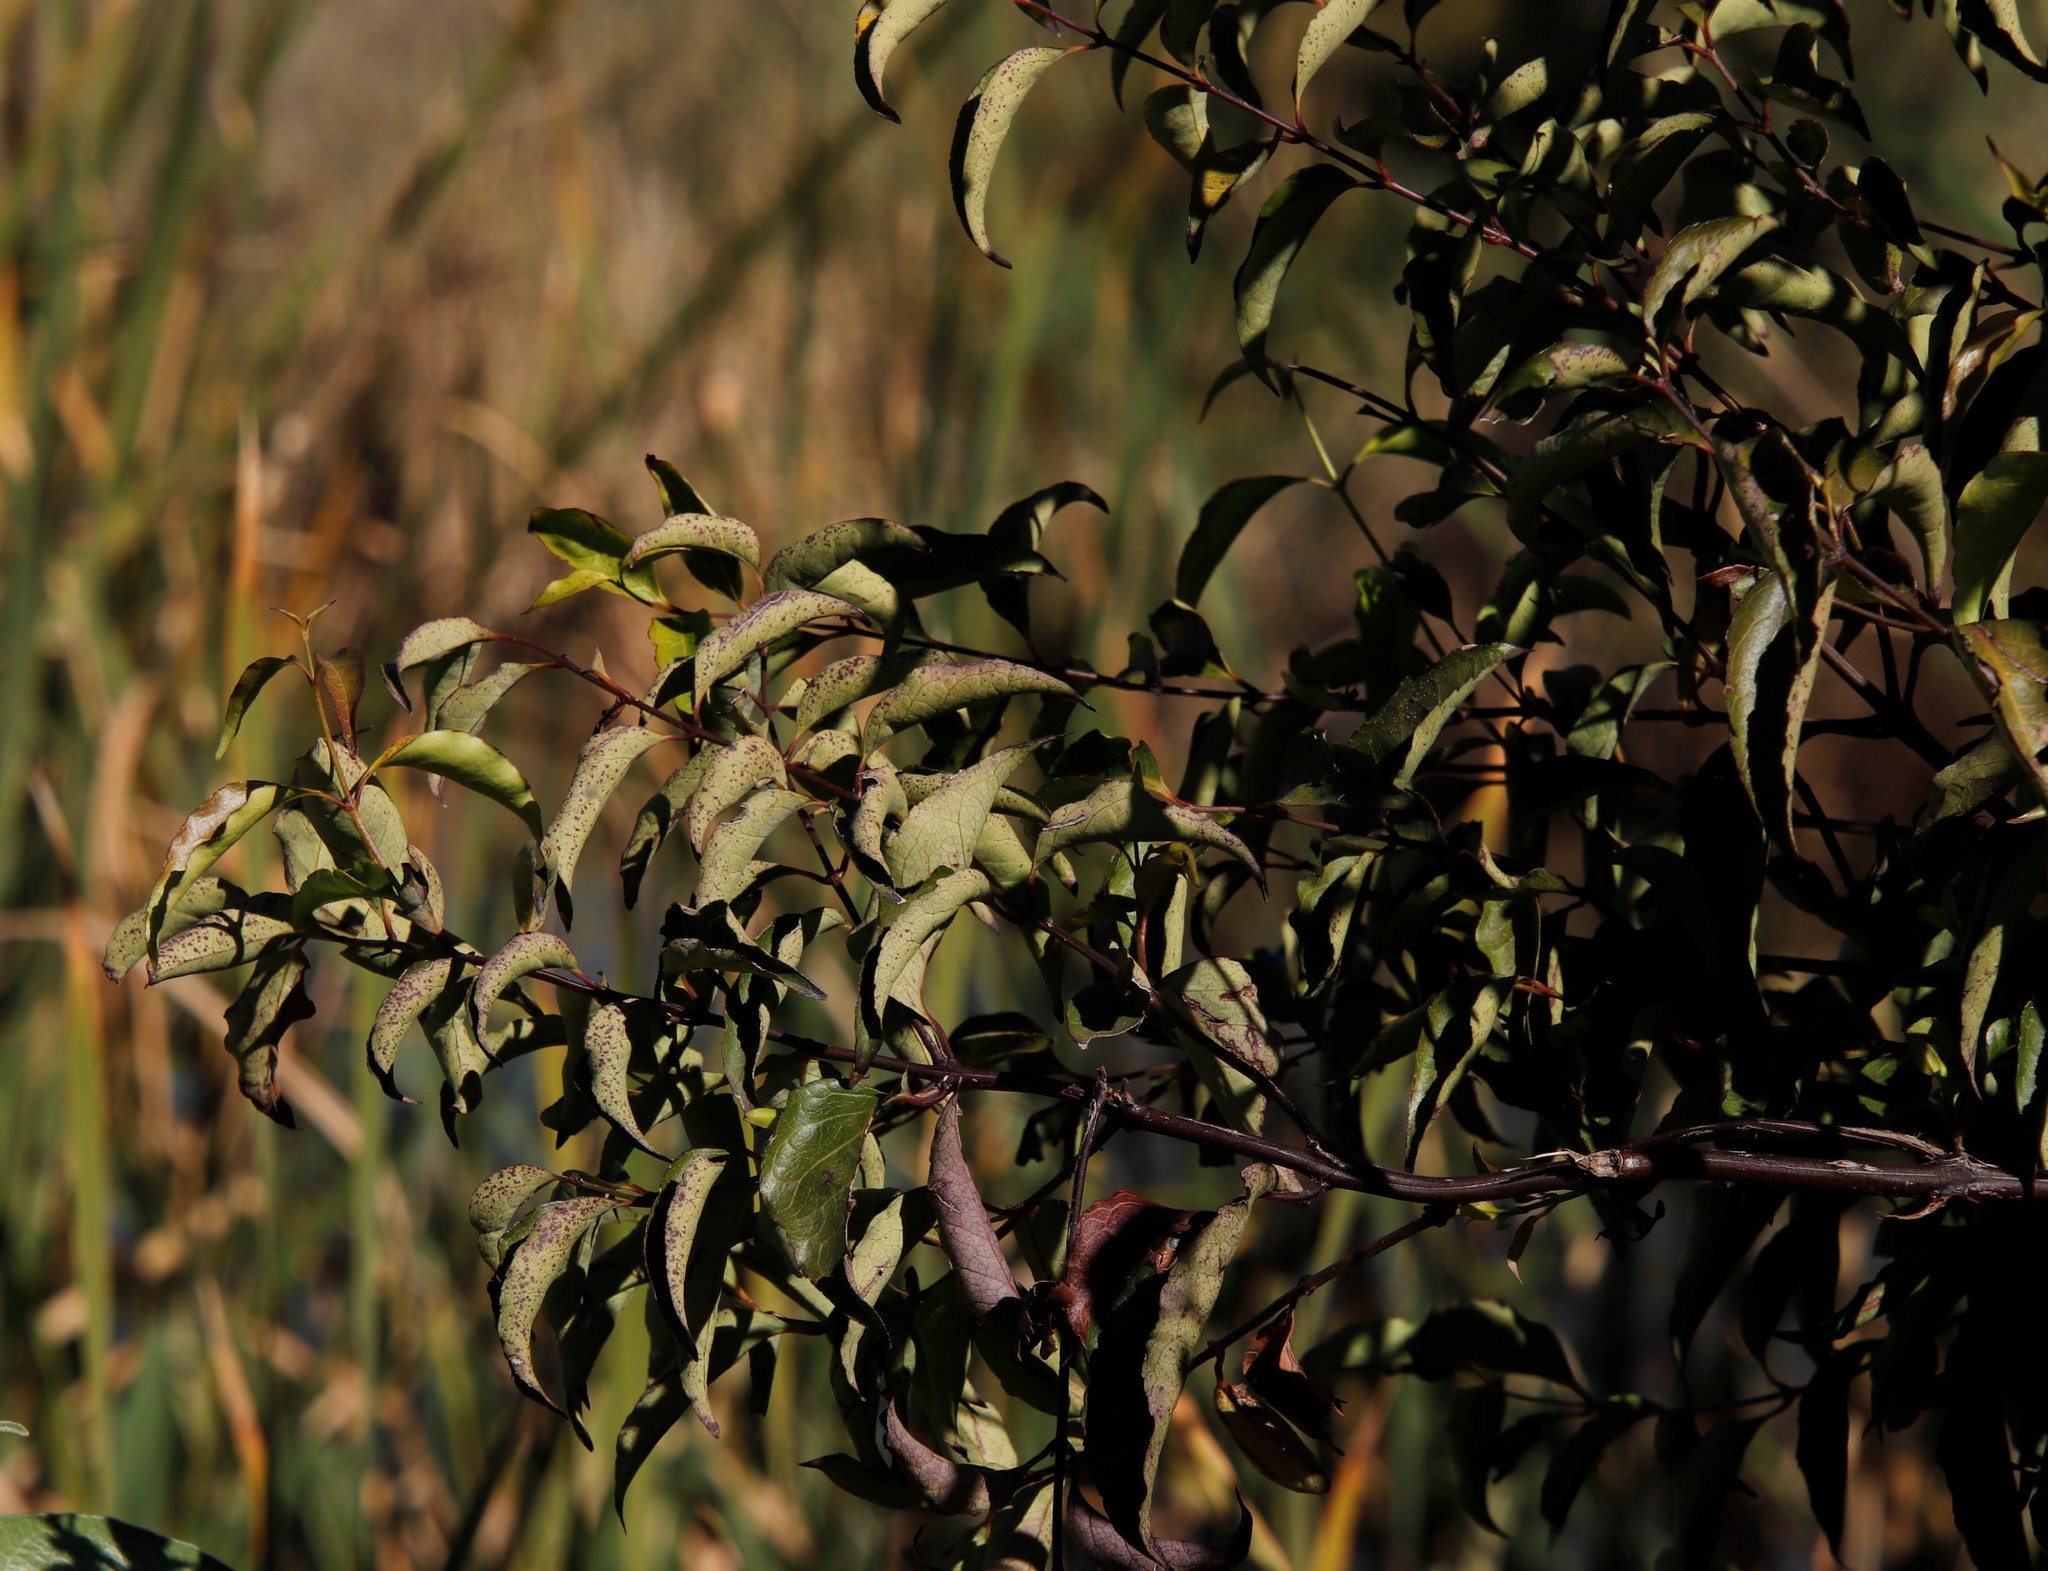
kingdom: Plantae
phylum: Tracheophyta
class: Magnoliopsida
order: Lamiales
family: Stilbaceae
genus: Halleria
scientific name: Halleria lucida
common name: Tree fuschia
